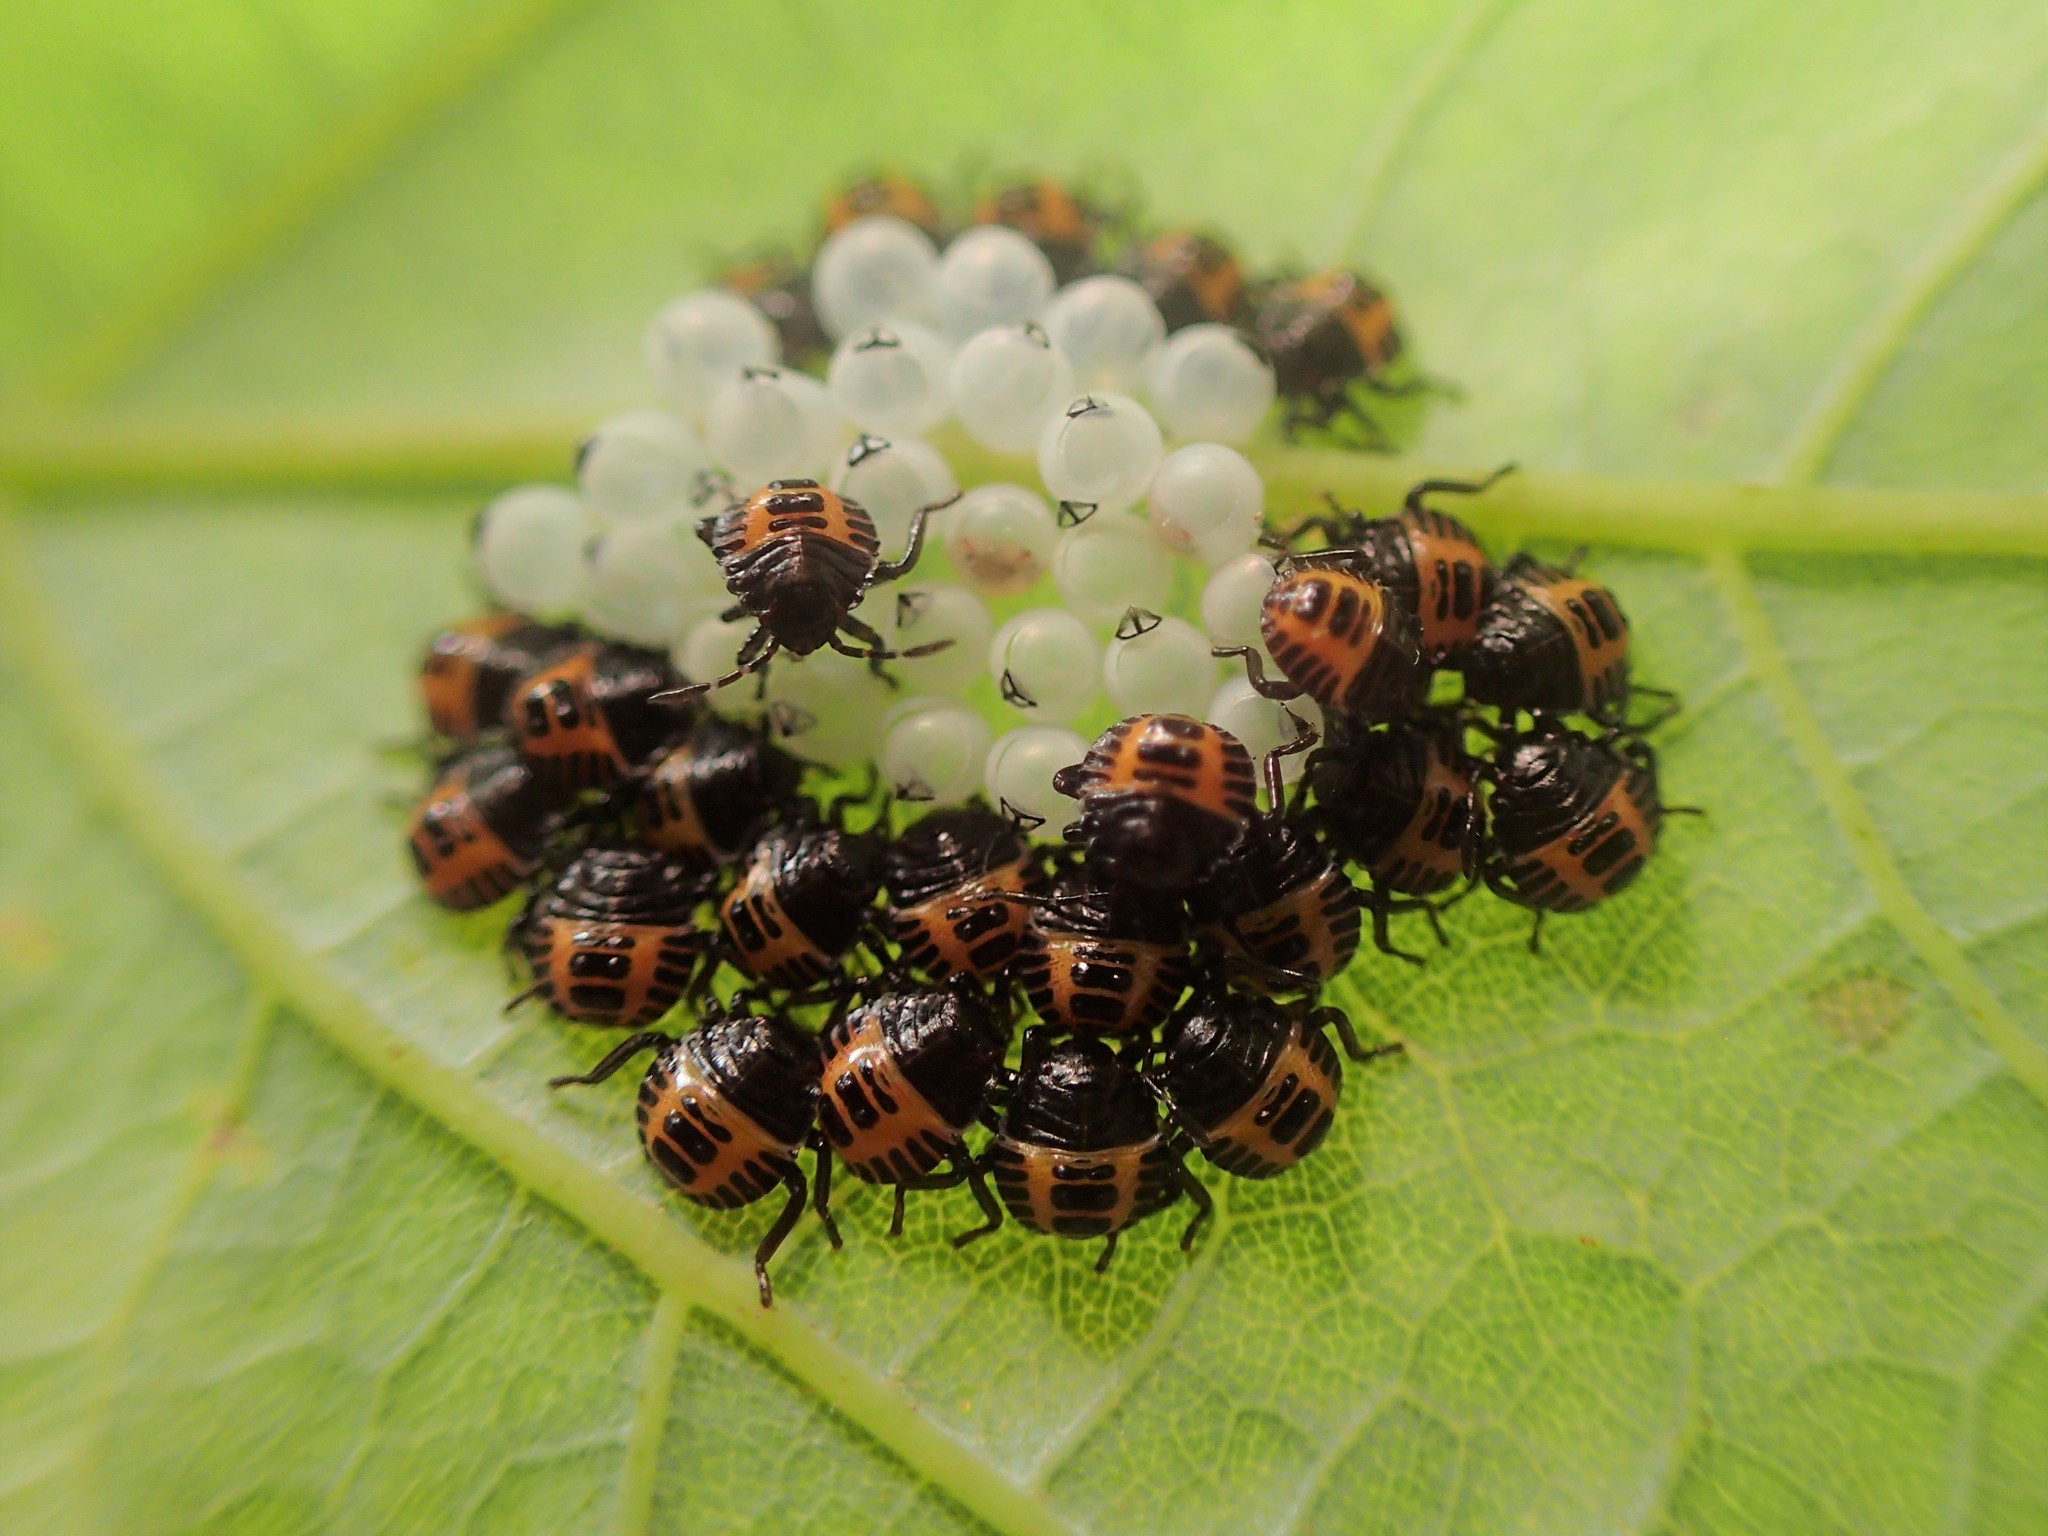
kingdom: Animalia
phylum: Arthropoda
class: Insecta
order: Hemiptera
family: Pentatomidae
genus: Halyomorpha
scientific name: Halyomorpha halys
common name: Brown marmorated stink bug
